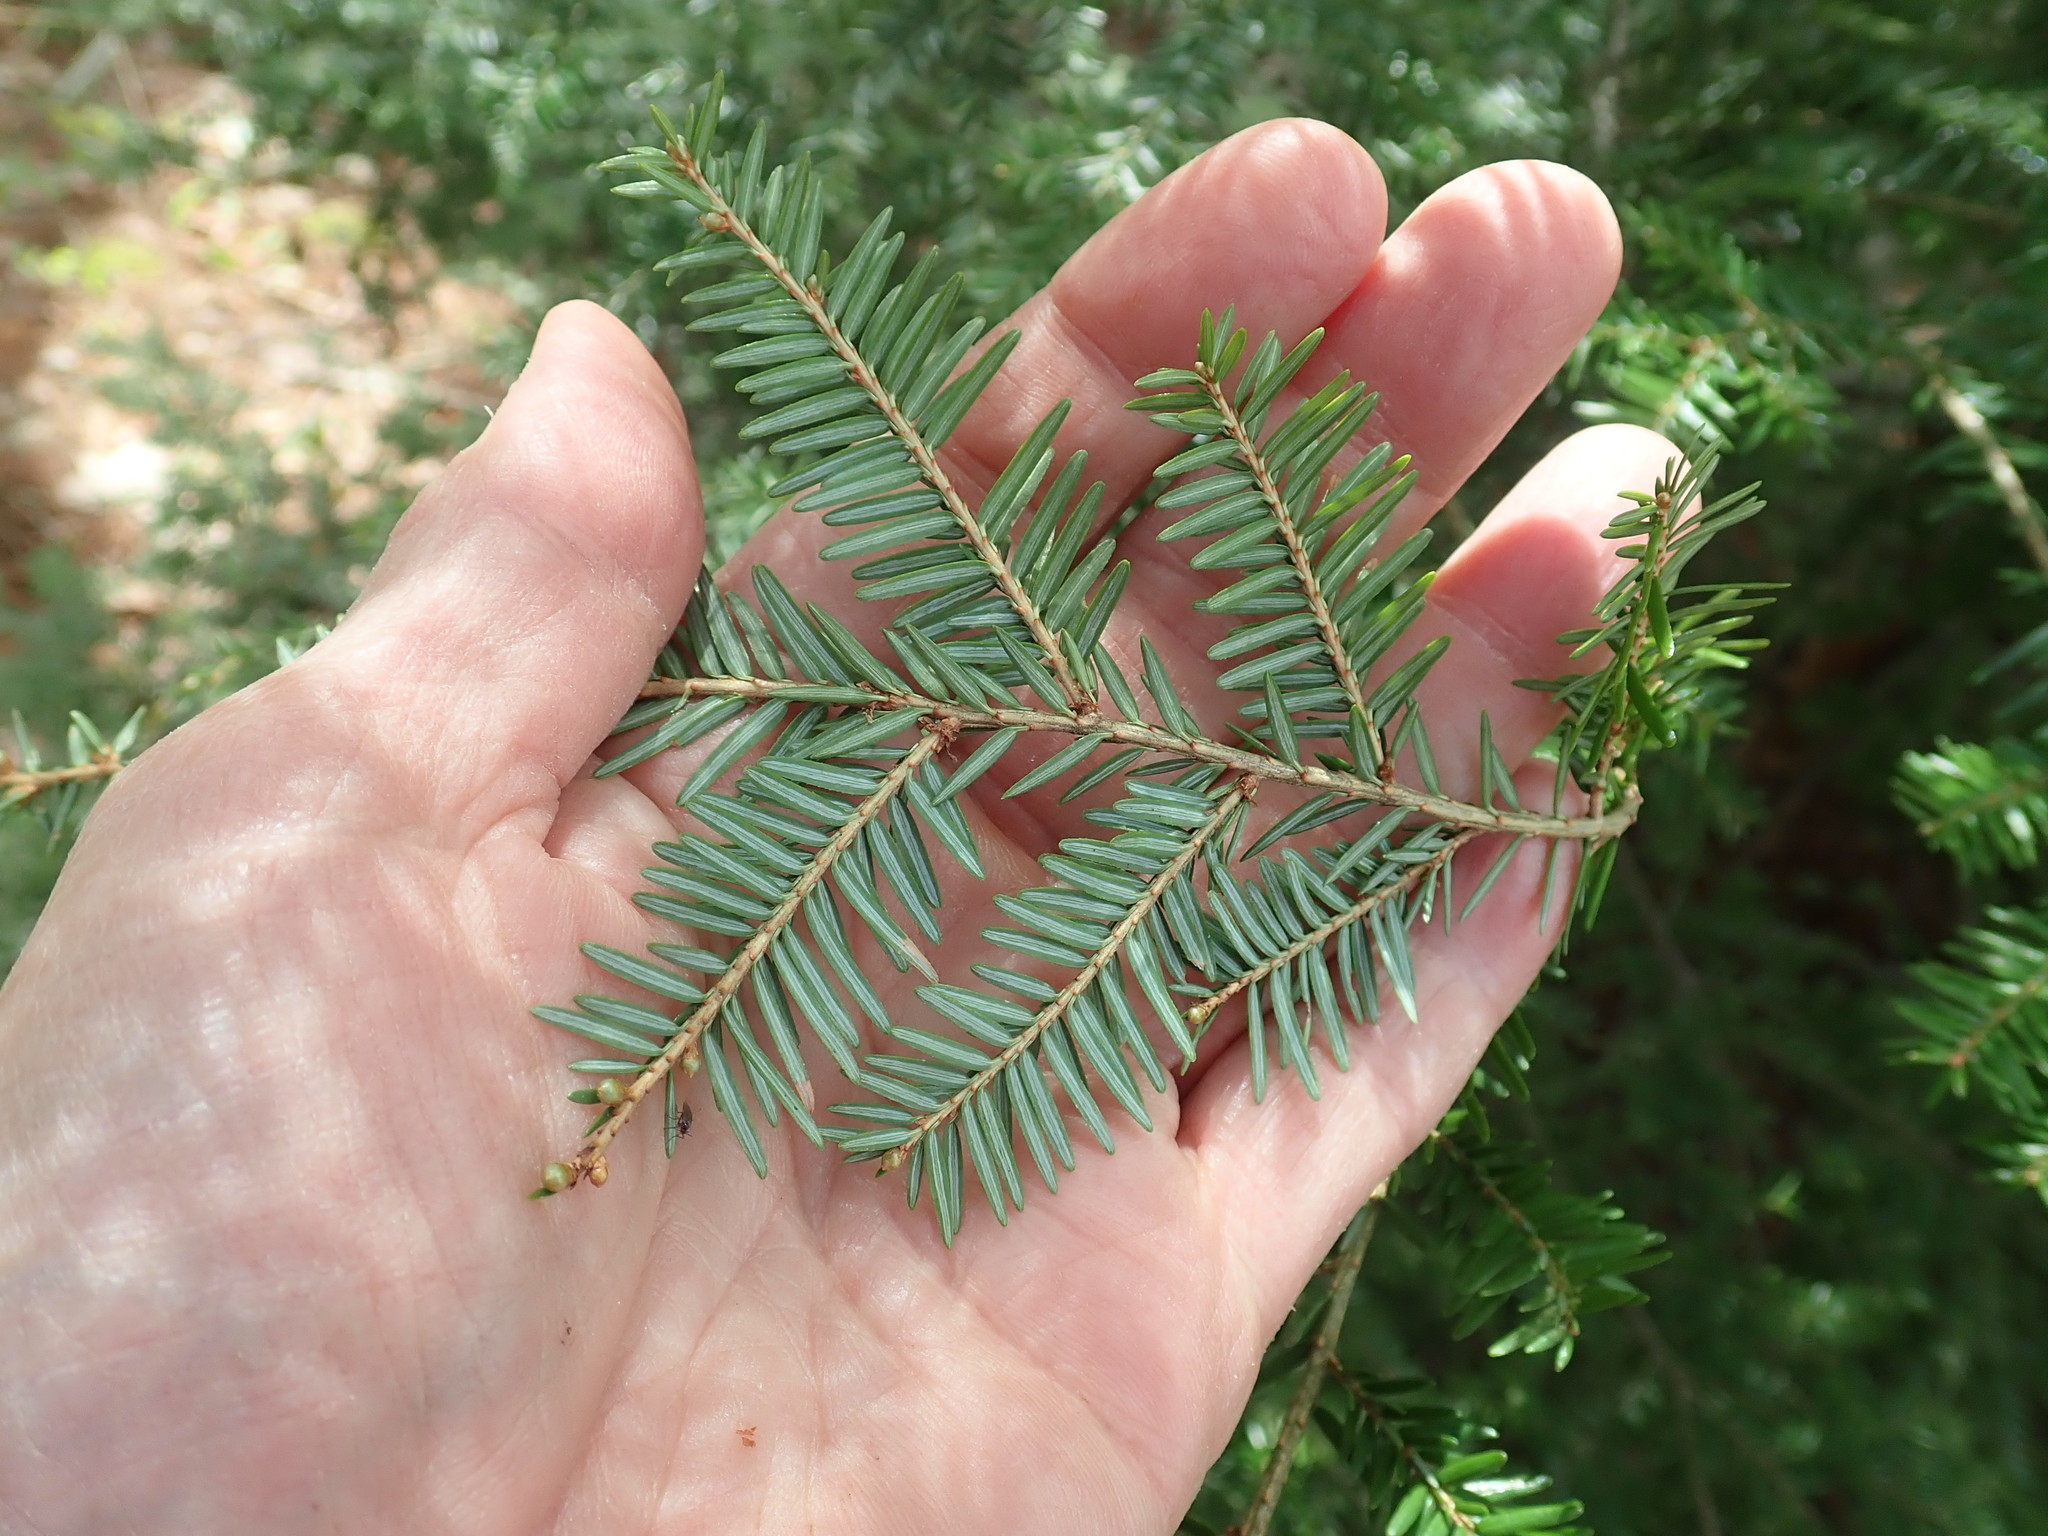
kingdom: Plantae
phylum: Tracheophyta
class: Pinopsida
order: Pinales
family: Pinaceae
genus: Tsuga
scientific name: Tsuga canadensis
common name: Eastern hemlock
